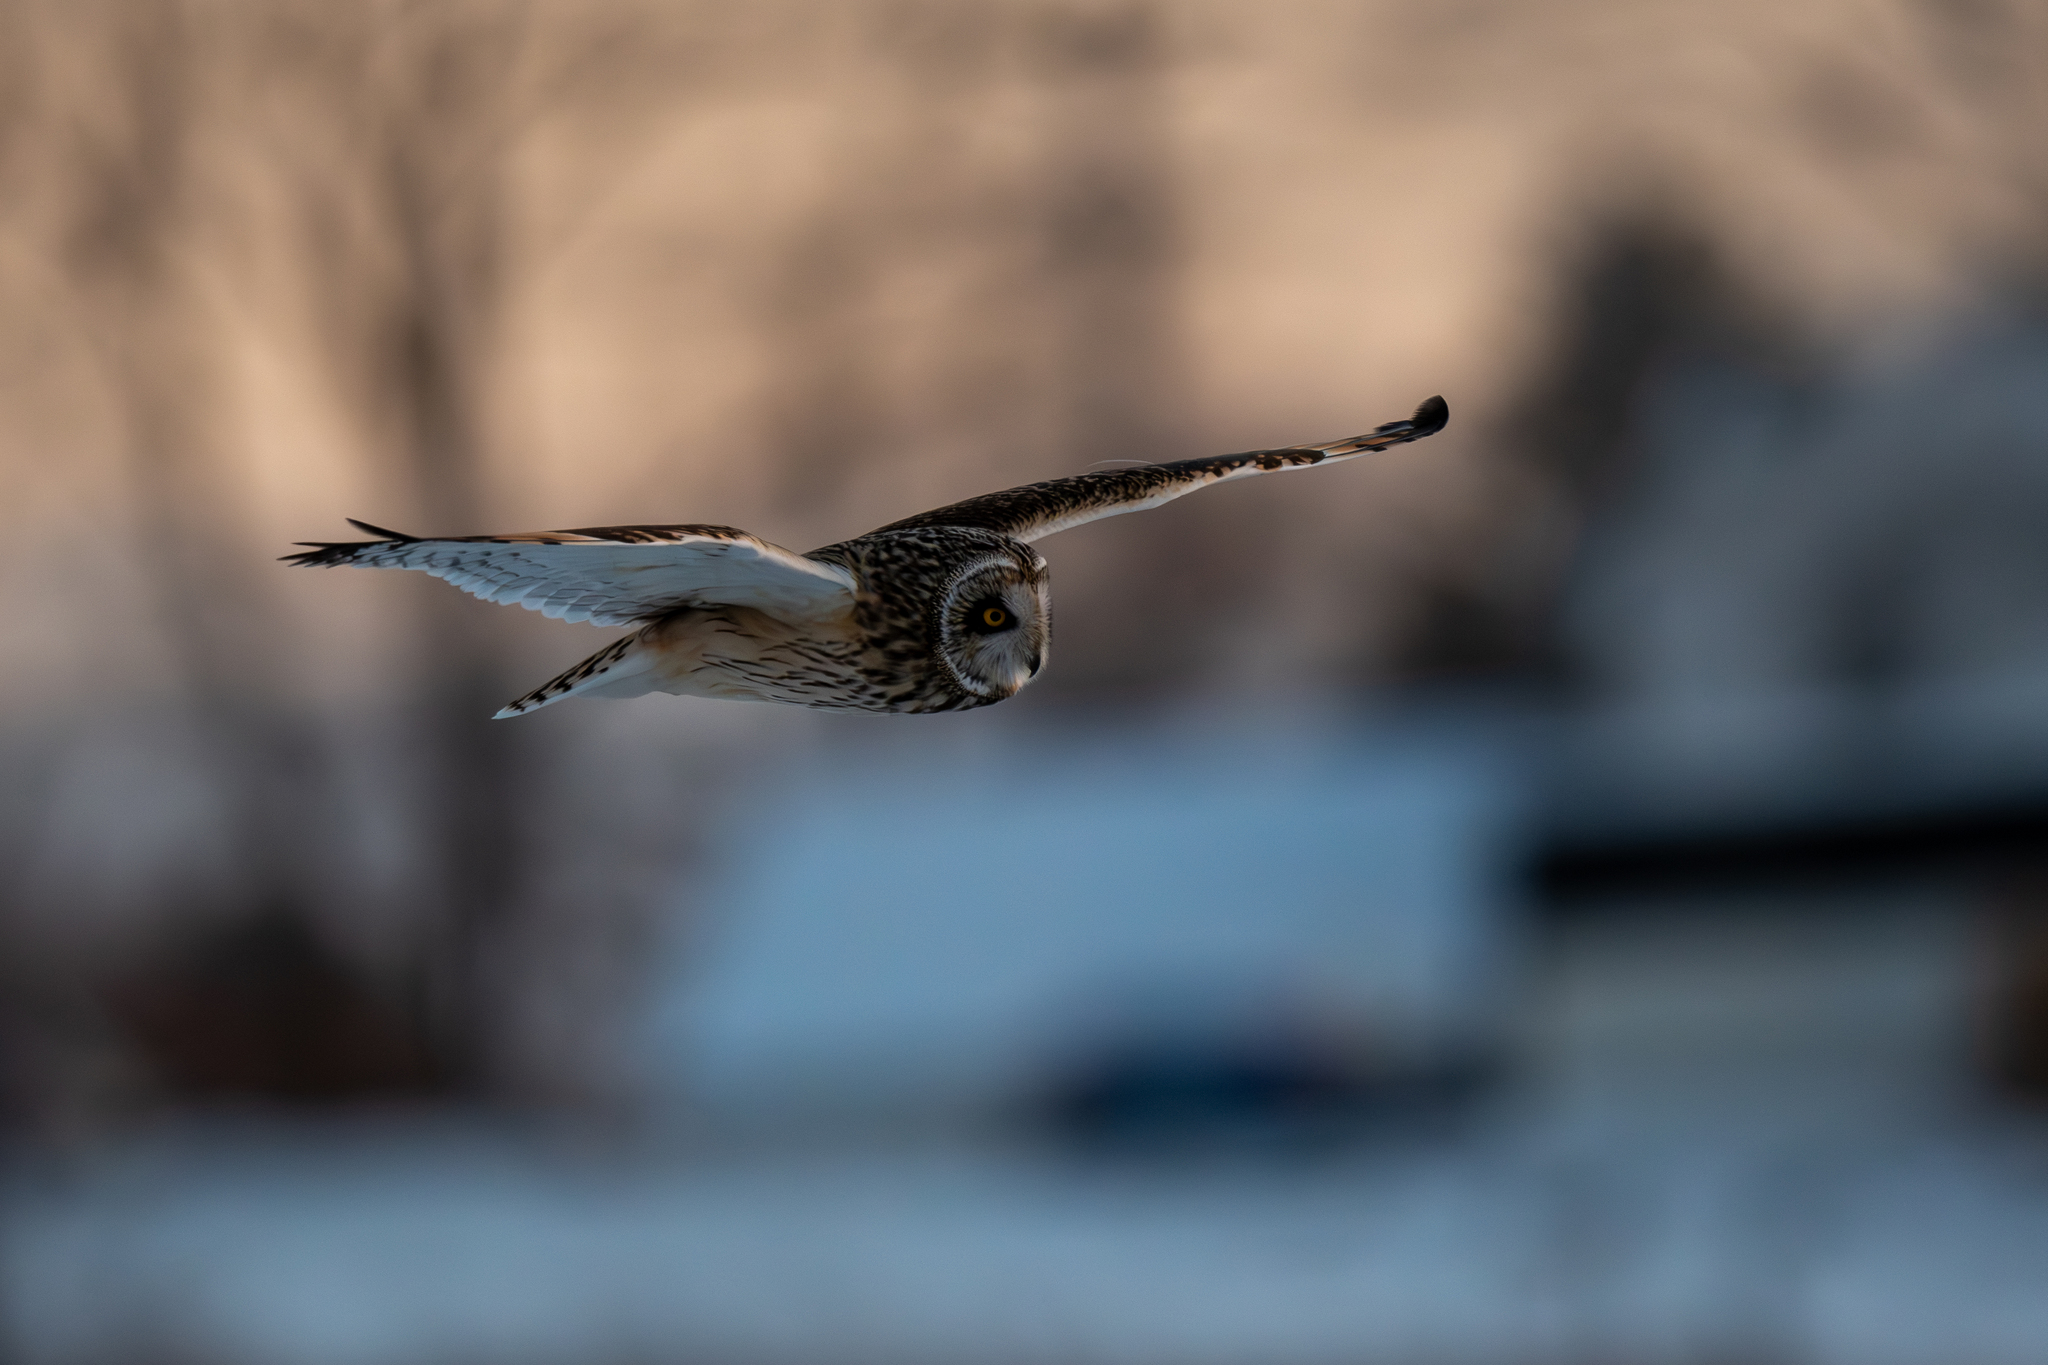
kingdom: Animalia
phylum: Chordata
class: Aves
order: Strigiformes
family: Strigidae
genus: Asio
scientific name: Asio flammeus
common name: Short-eared owl
